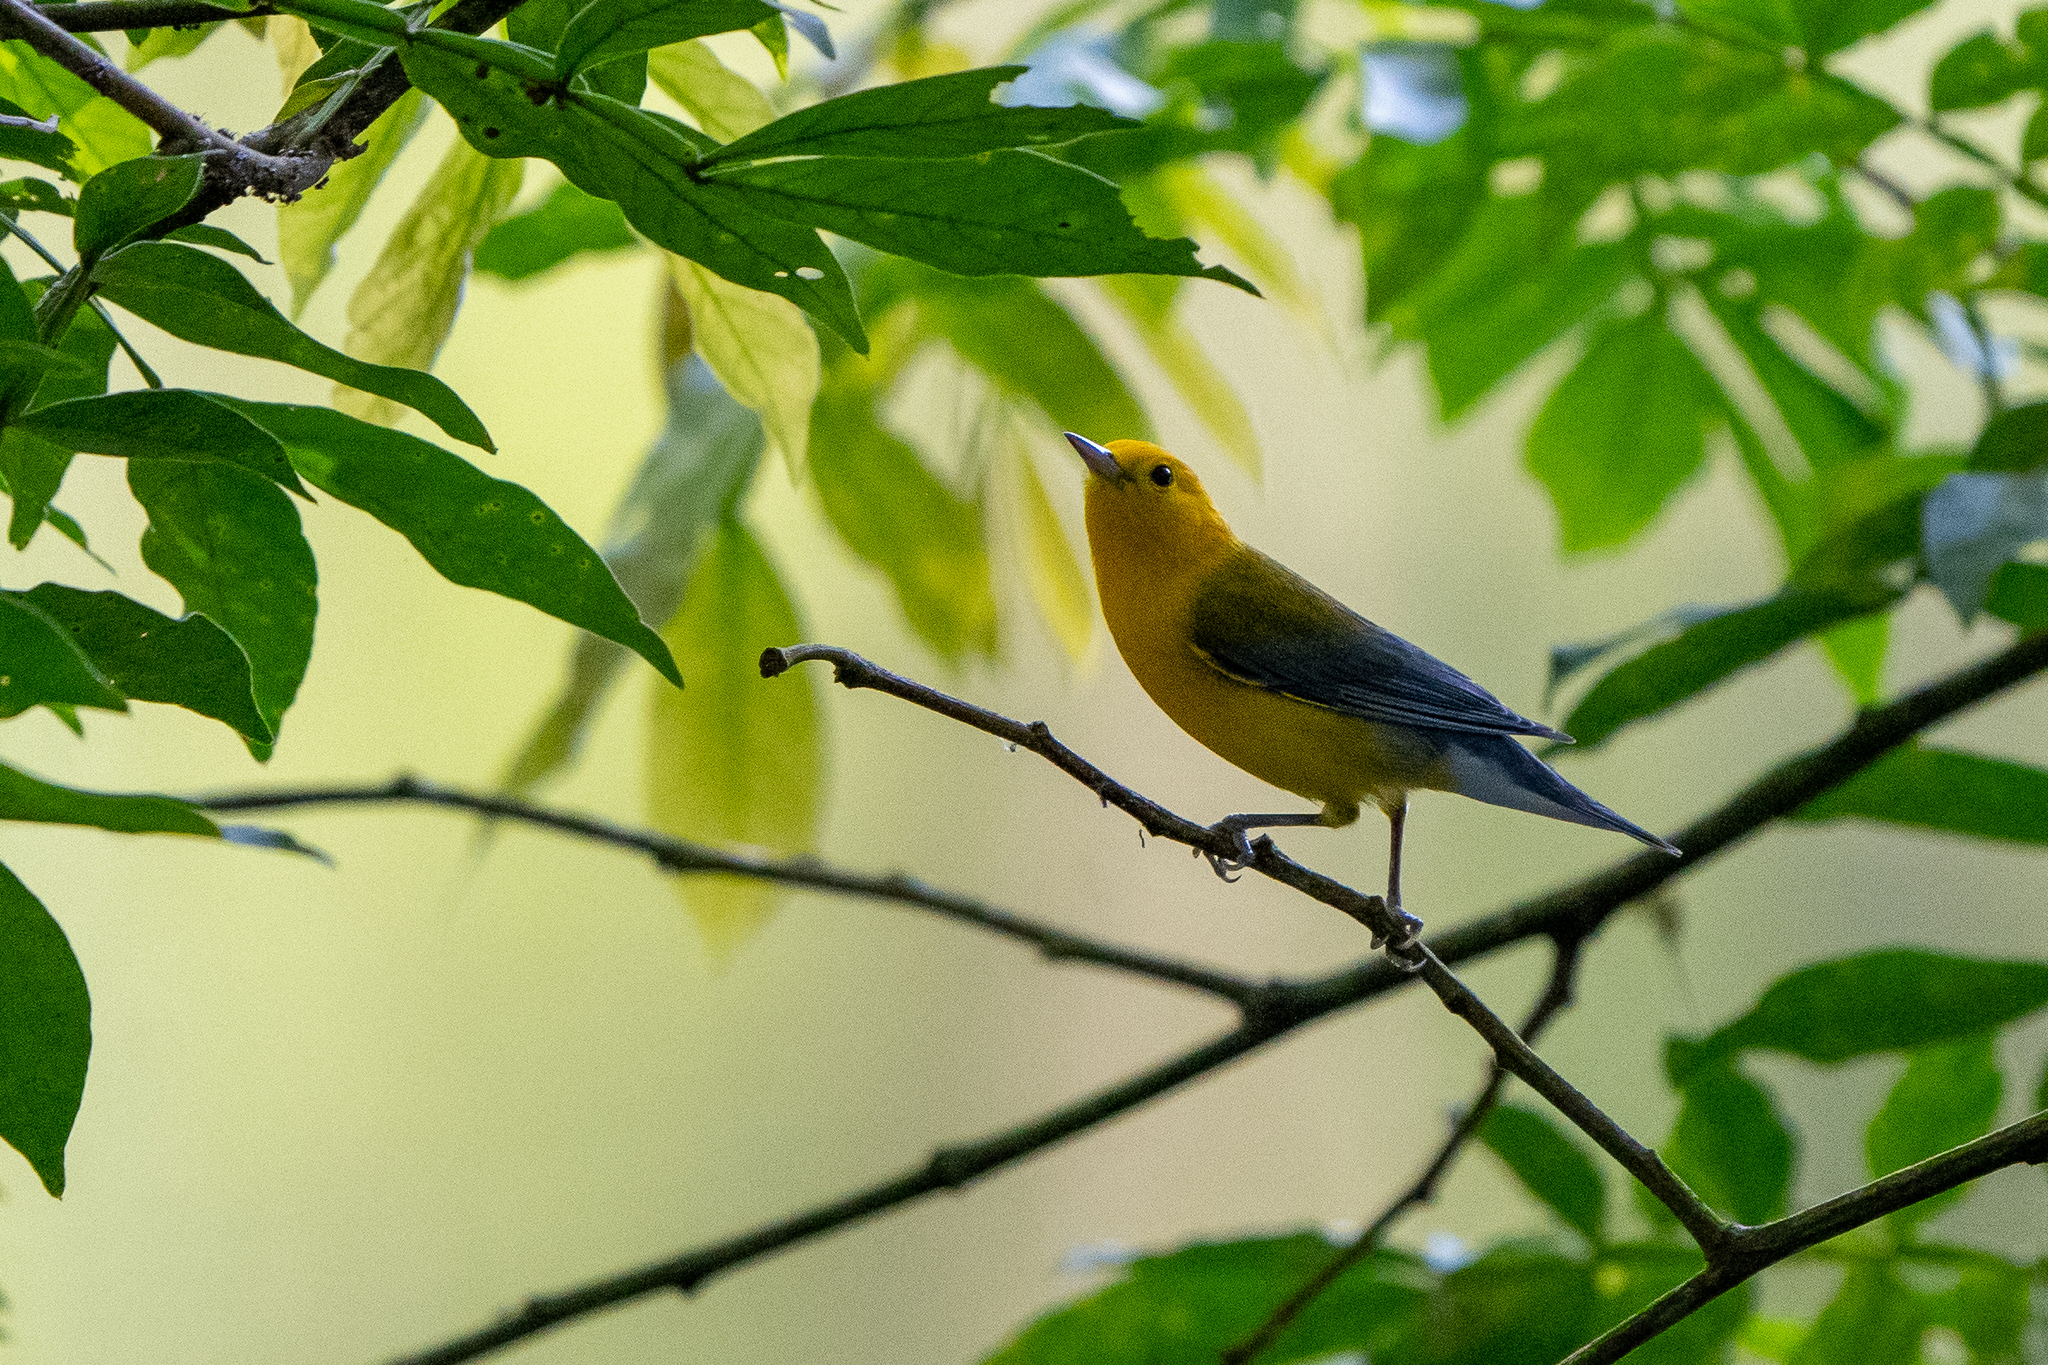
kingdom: Animalia
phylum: Chordata
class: Aves
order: Passeriformes
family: Parulidae
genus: Protonotaria
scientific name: Protonotaria citrea
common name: Prothonotary warbler
